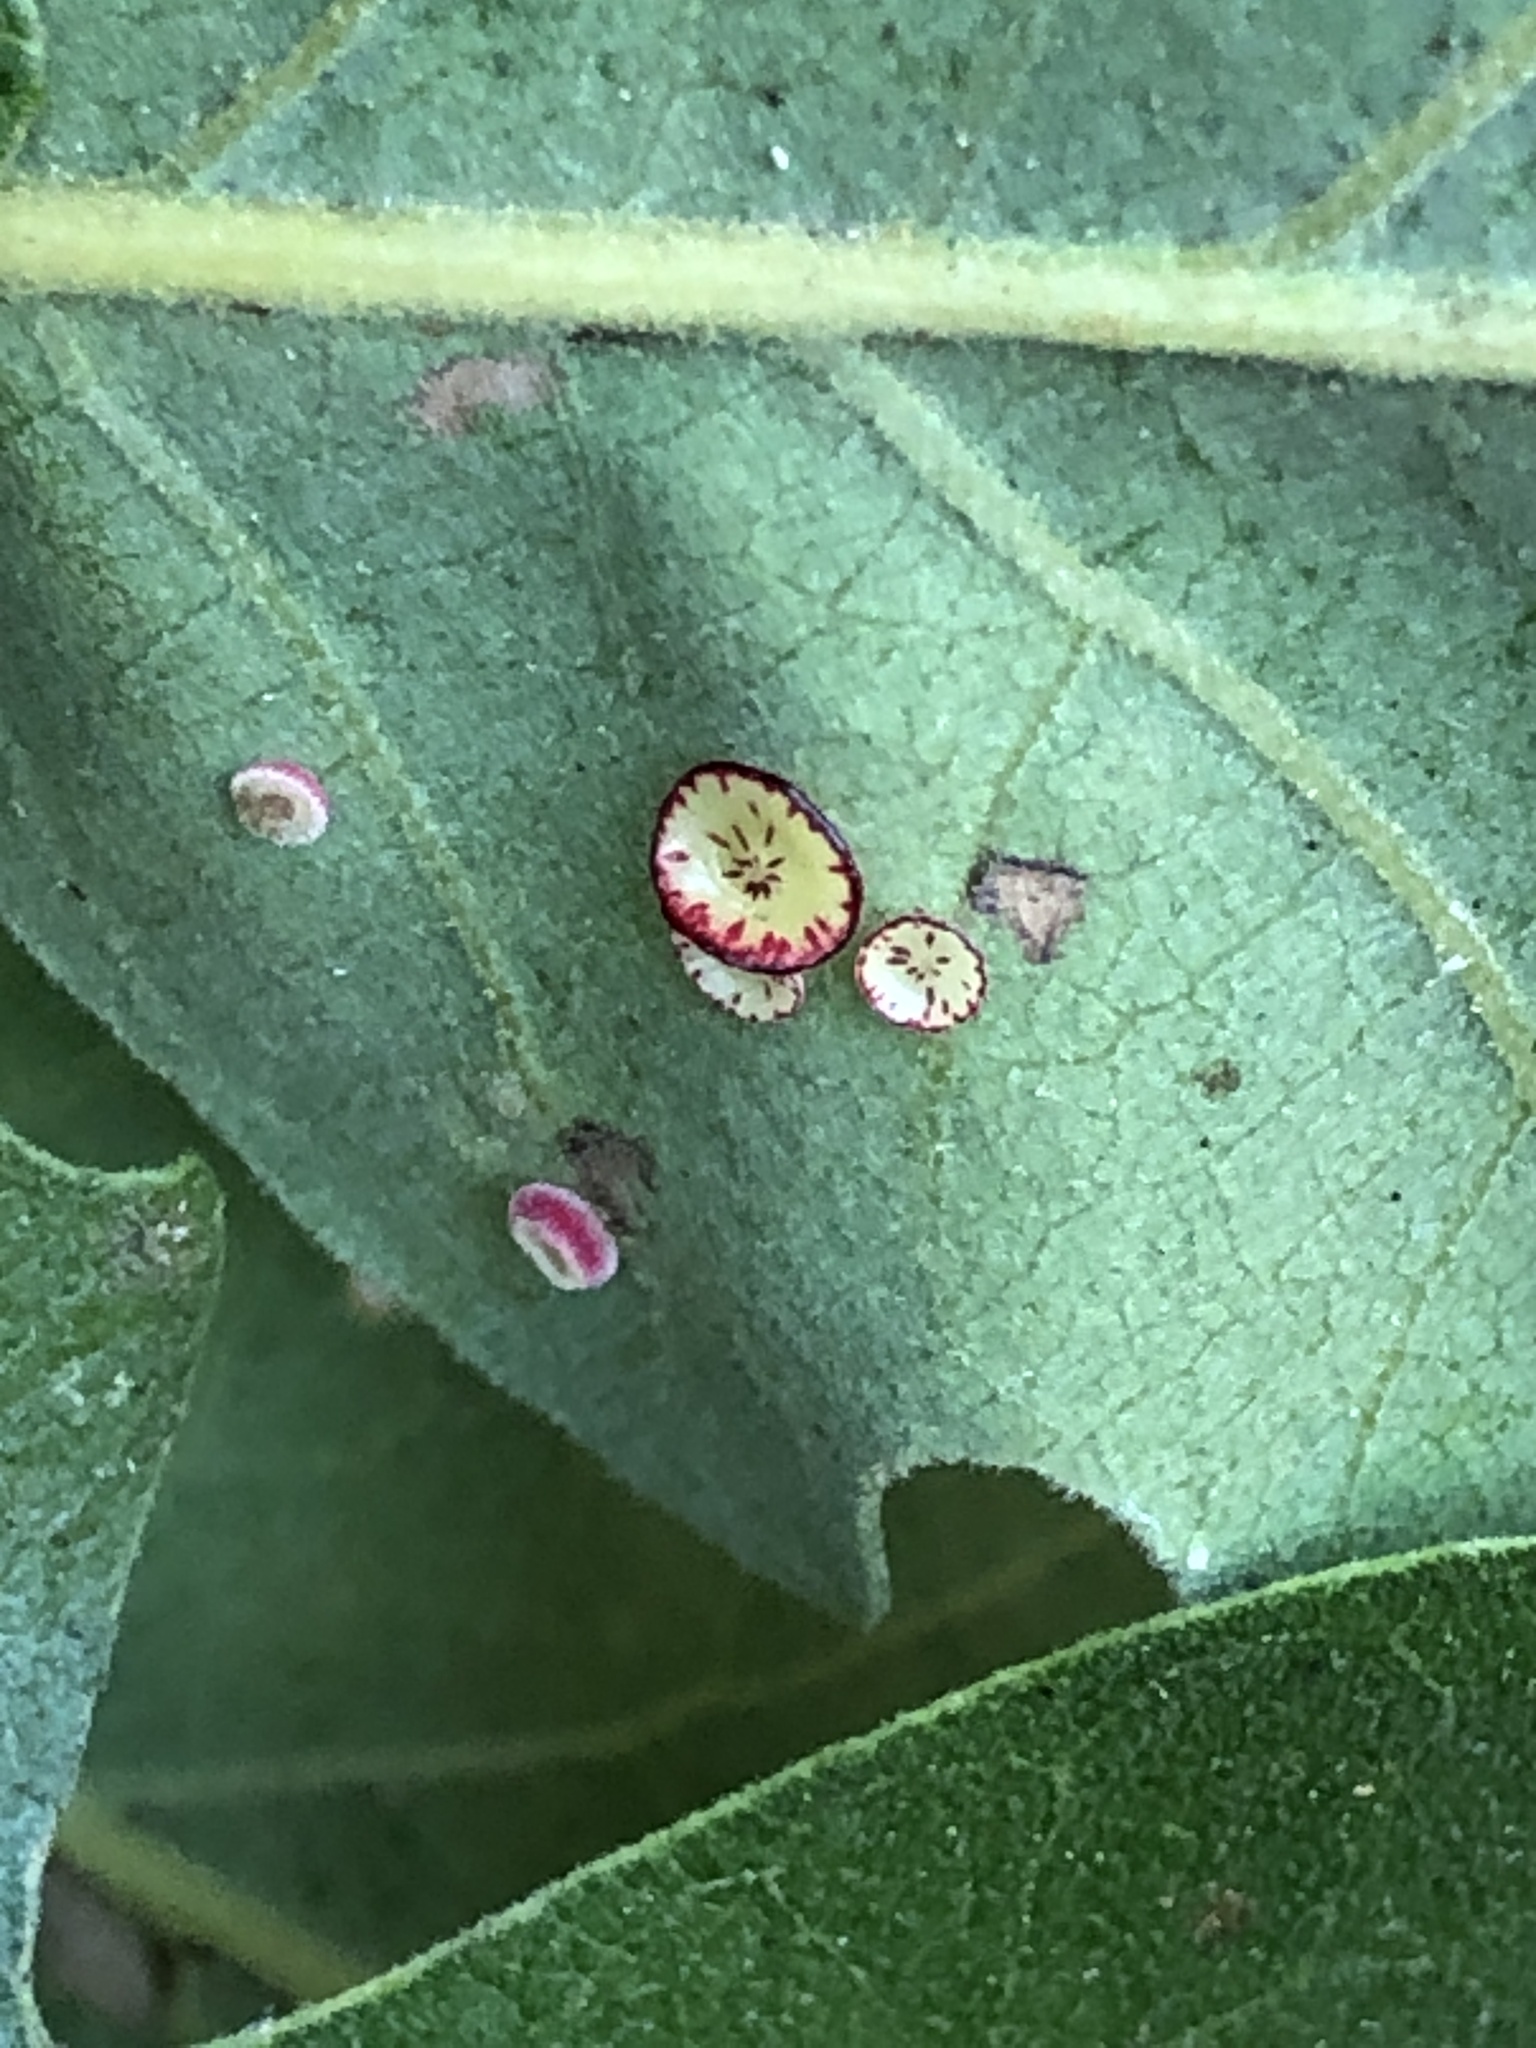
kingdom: Animalia
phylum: Arthropoda
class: Insecta
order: Hymenoptera
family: Cynipidae
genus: Andricus
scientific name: Andricus
